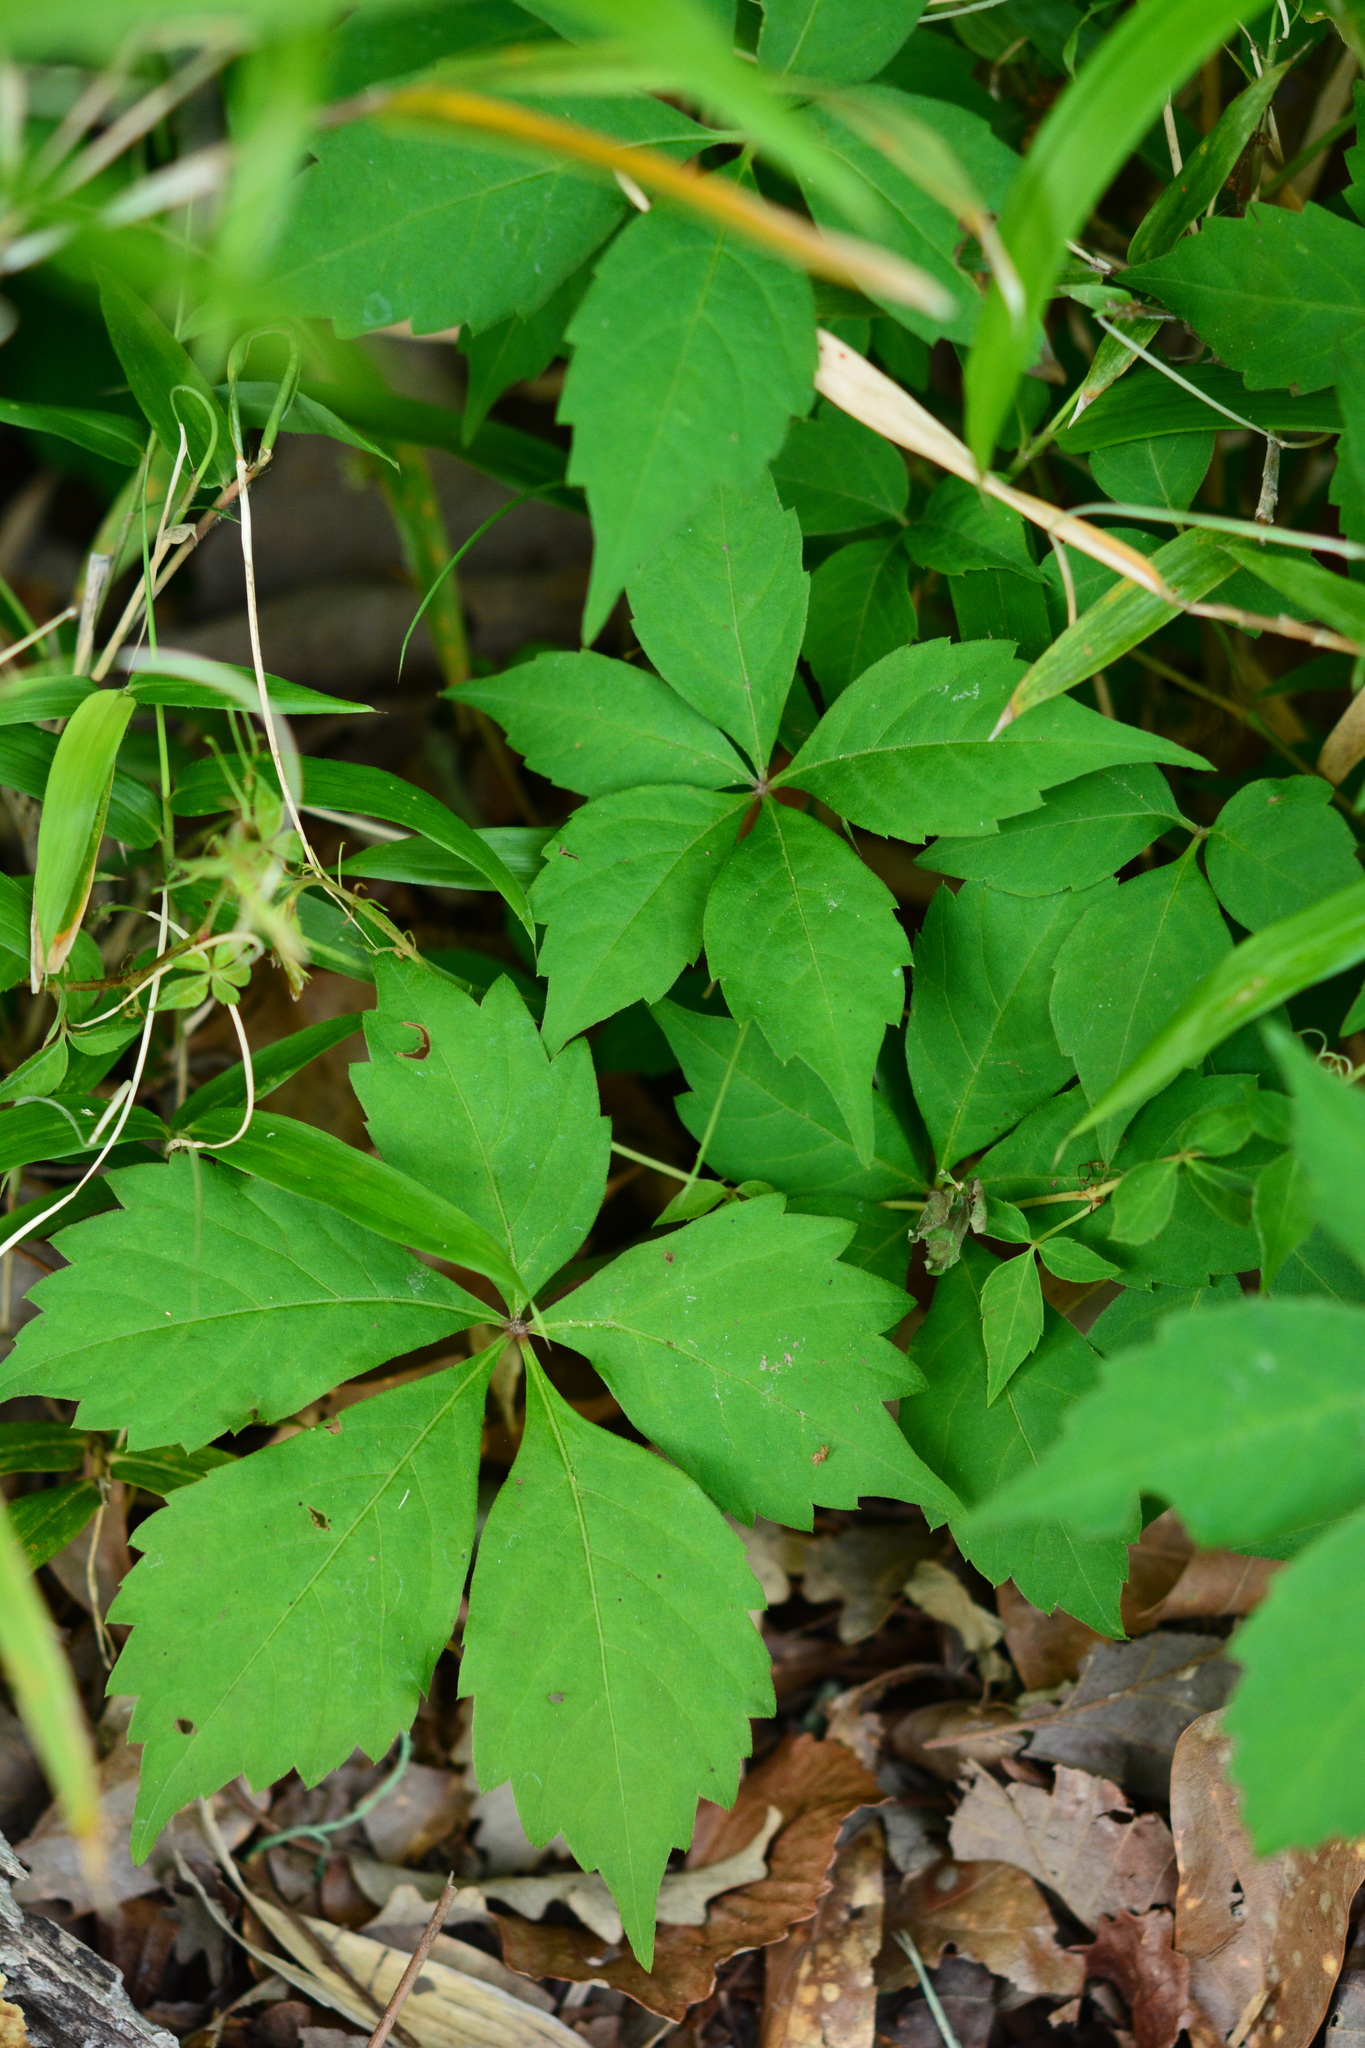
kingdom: Plantae
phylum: Tracheophyta
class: Magnoliopsida
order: Vitales
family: Vitaceae
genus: Parthenocissus
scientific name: Parthenocissus quinquefolia
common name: Virginia-creeper
